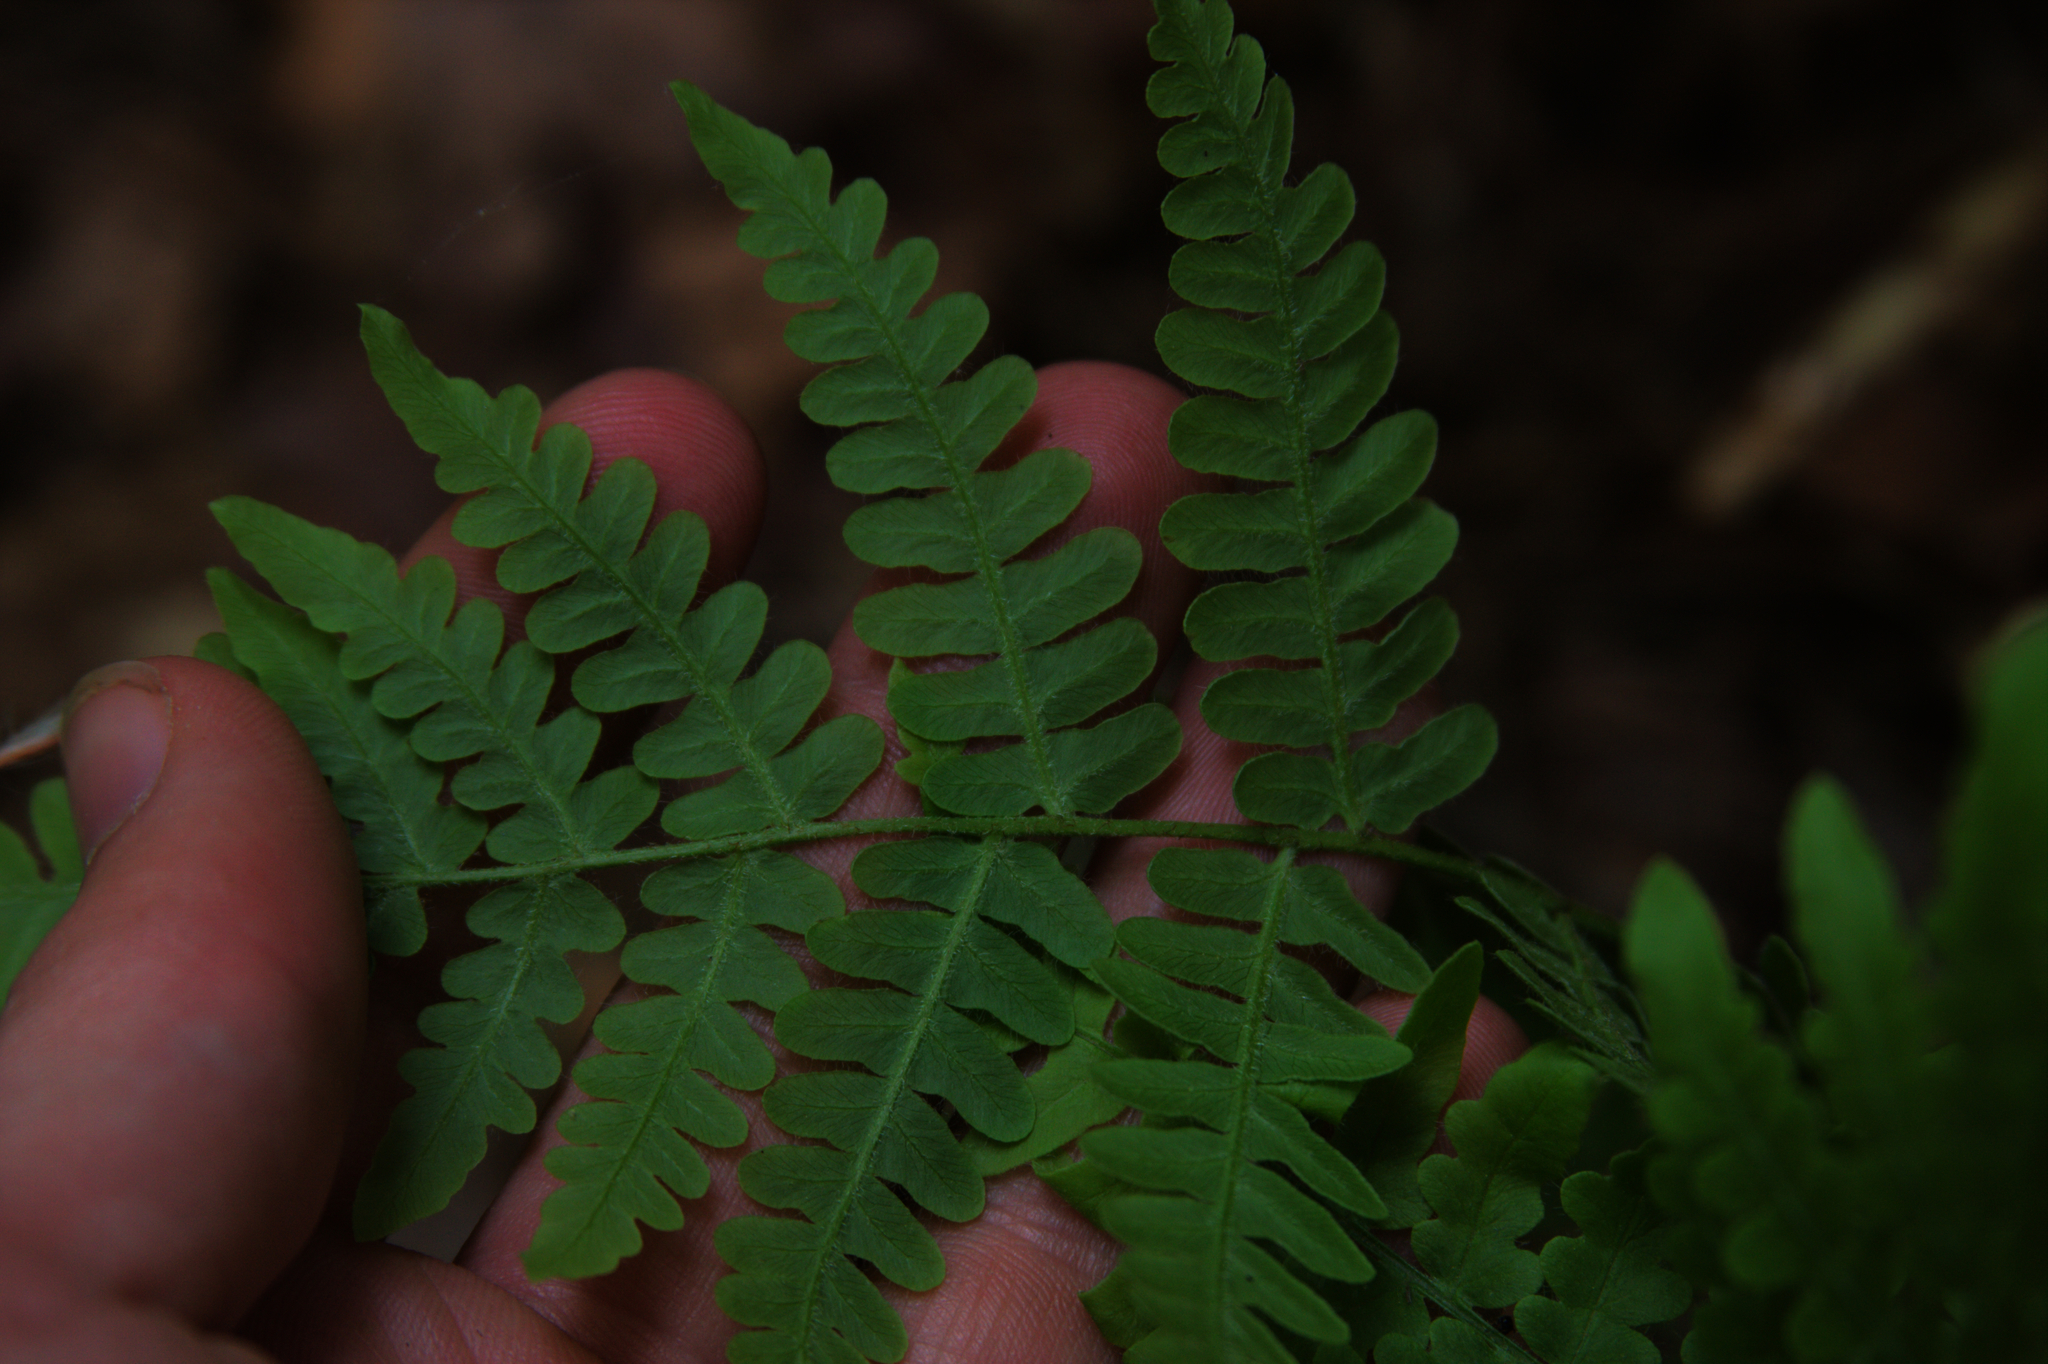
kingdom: Plantae
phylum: Tracheophyta
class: Polypodiopsida
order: Polypodiales
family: Dennstaedtiaceae
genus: Pteridium
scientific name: Pteridium aquilinum
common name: Bracken
